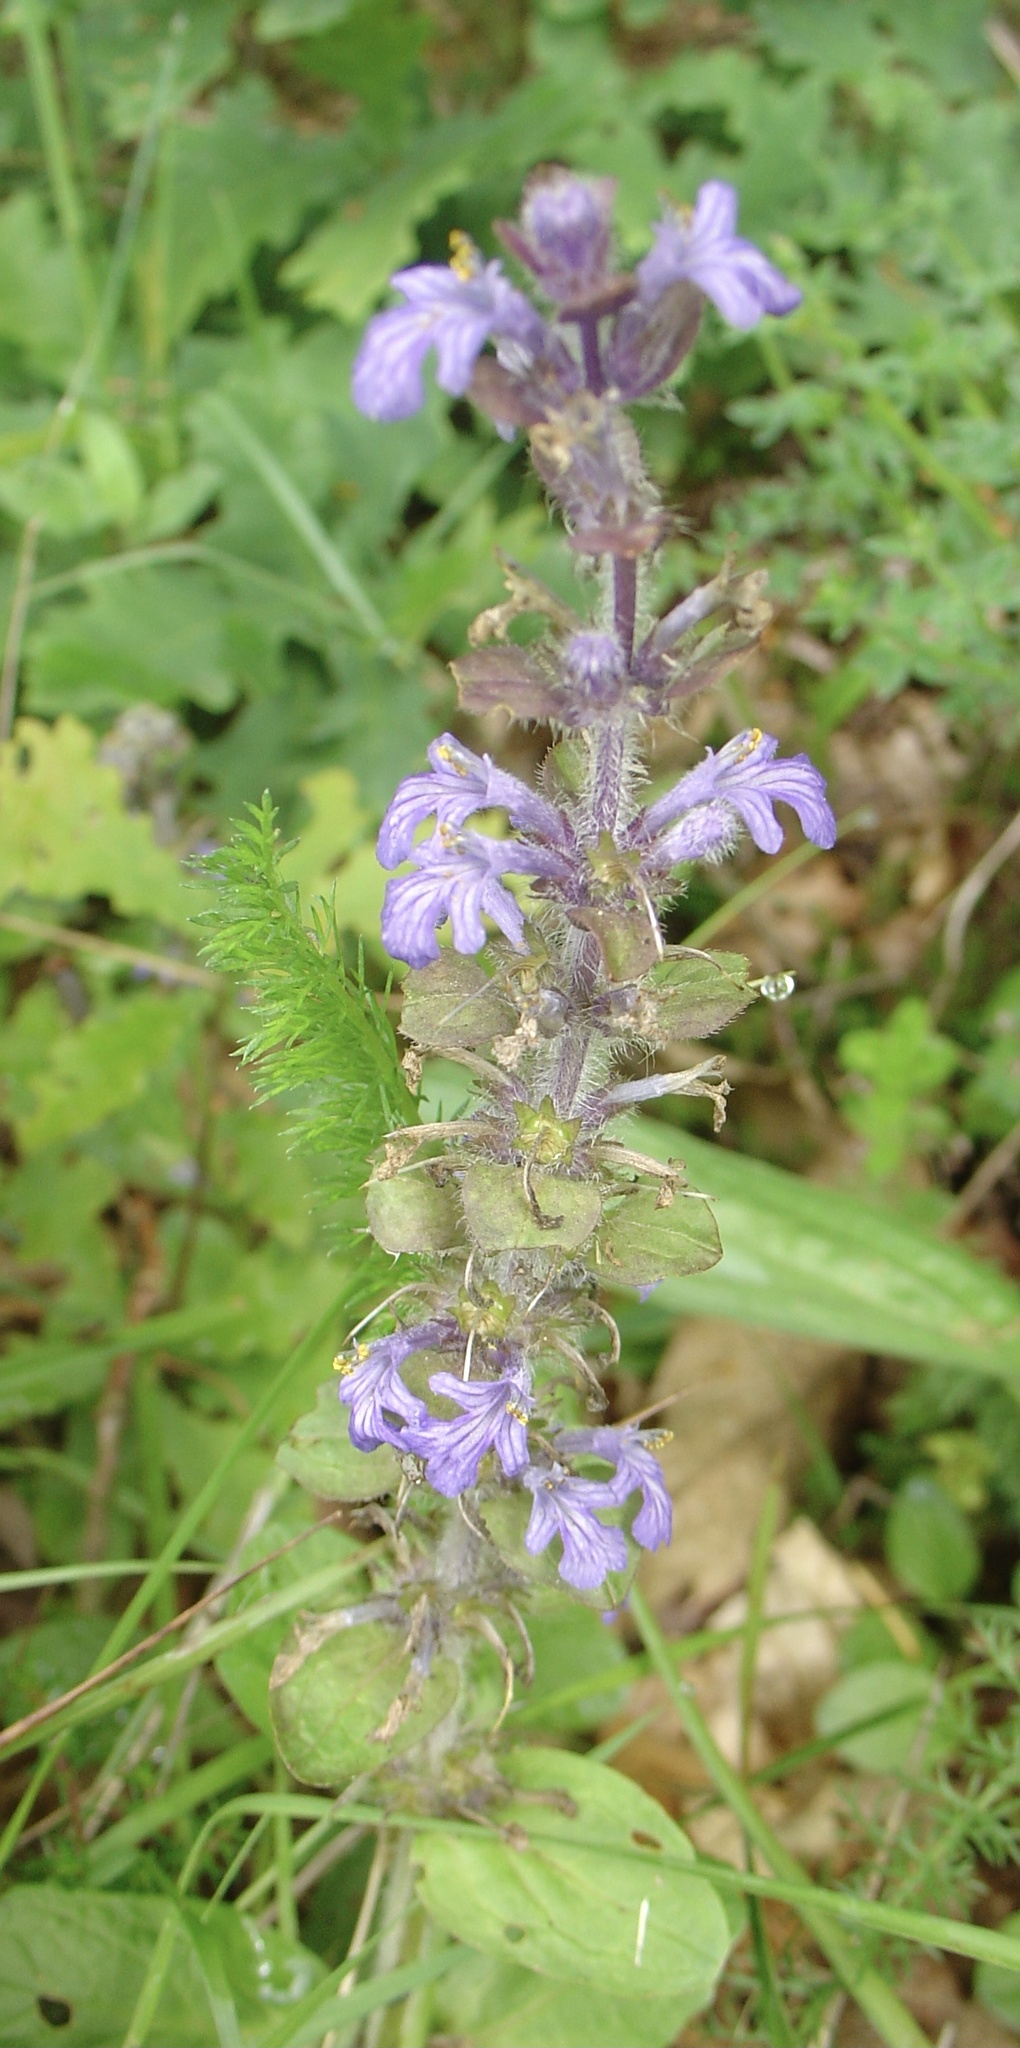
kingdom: Plantae
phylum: Tracheophyta
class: Magnoliopsida
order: Lamiales
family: Lamiaceae
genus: Ajuga
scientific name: Ajuga reptans
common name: Bugle
